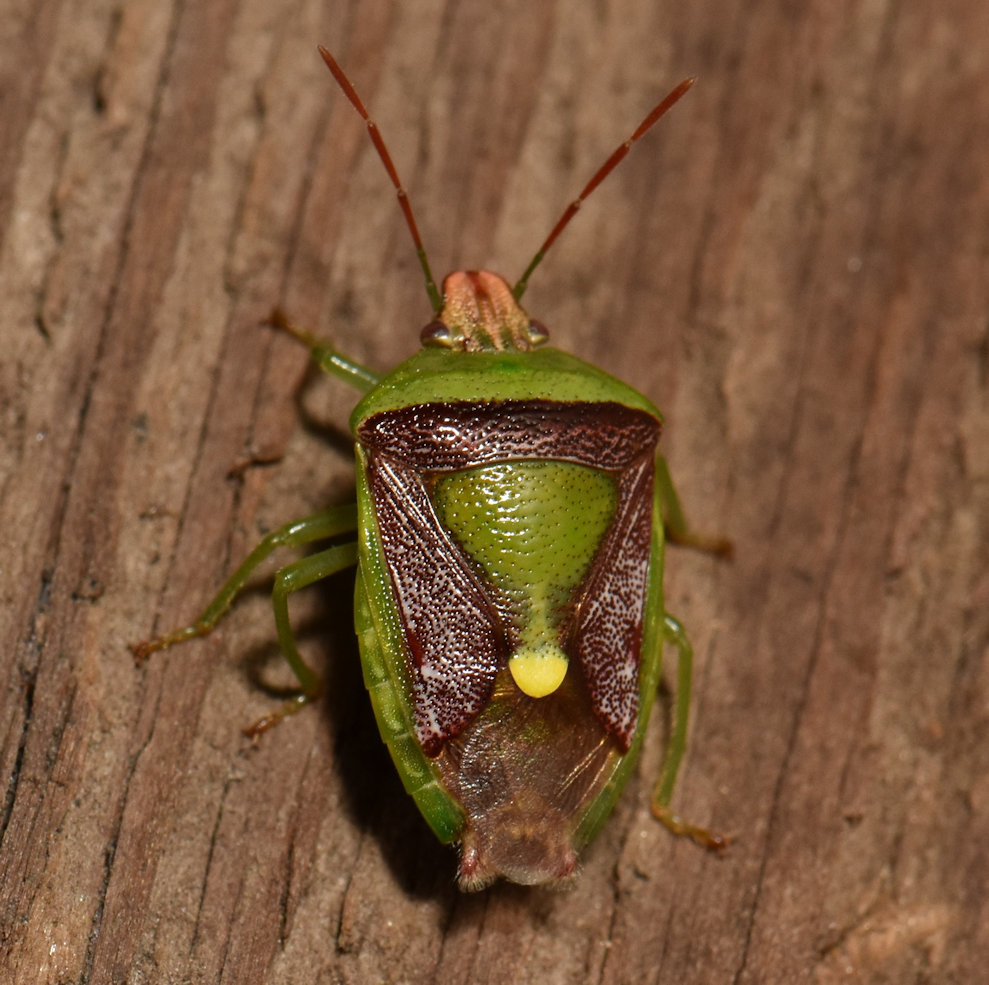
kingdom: Animalia
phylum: Arthropoda
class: Insecta
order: Hemiptera
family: Pentatomidae
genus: Banasa
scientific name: Banasa dimidiata
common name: Green burgundy stink bug
